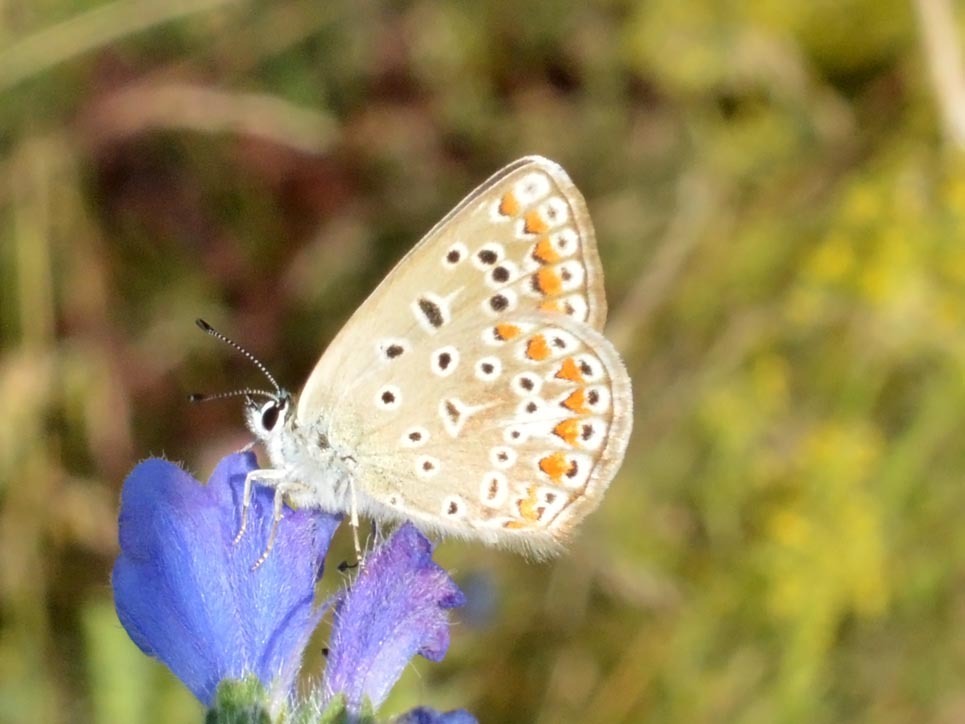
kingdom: Animalia
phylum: Arthropoda
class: Insecta
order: Lepidoptera
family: Lycaenidae
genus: Polyommatus
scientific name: Polyommatus icarus
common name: Common blue
